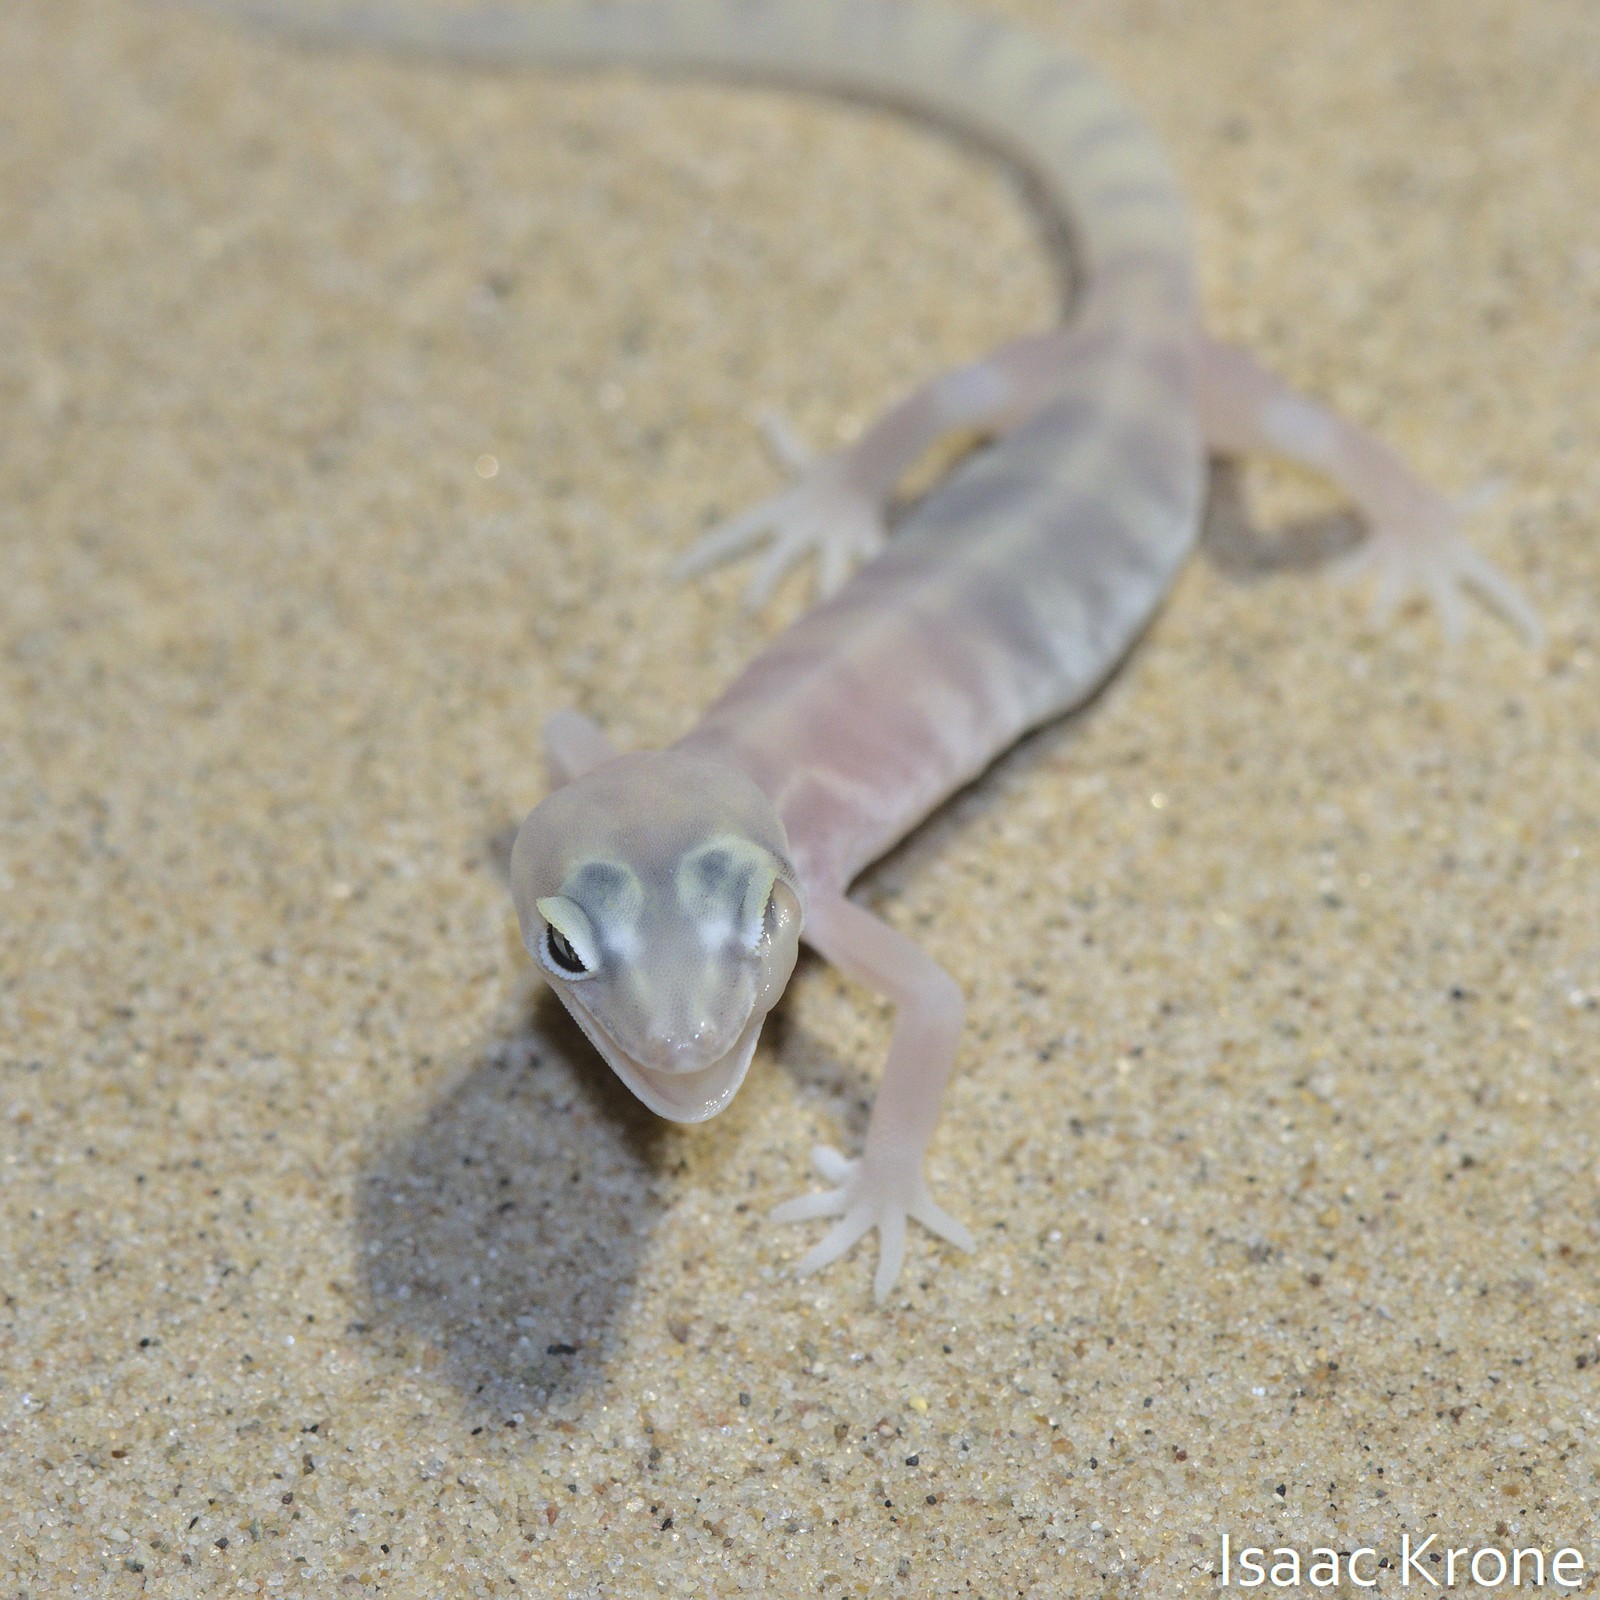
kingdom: Animalia
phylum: Chordata
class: Squamata
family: Eublepharidae
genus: Coleonyx
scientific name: Coleonyx variegatus
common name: Western banded gecko
